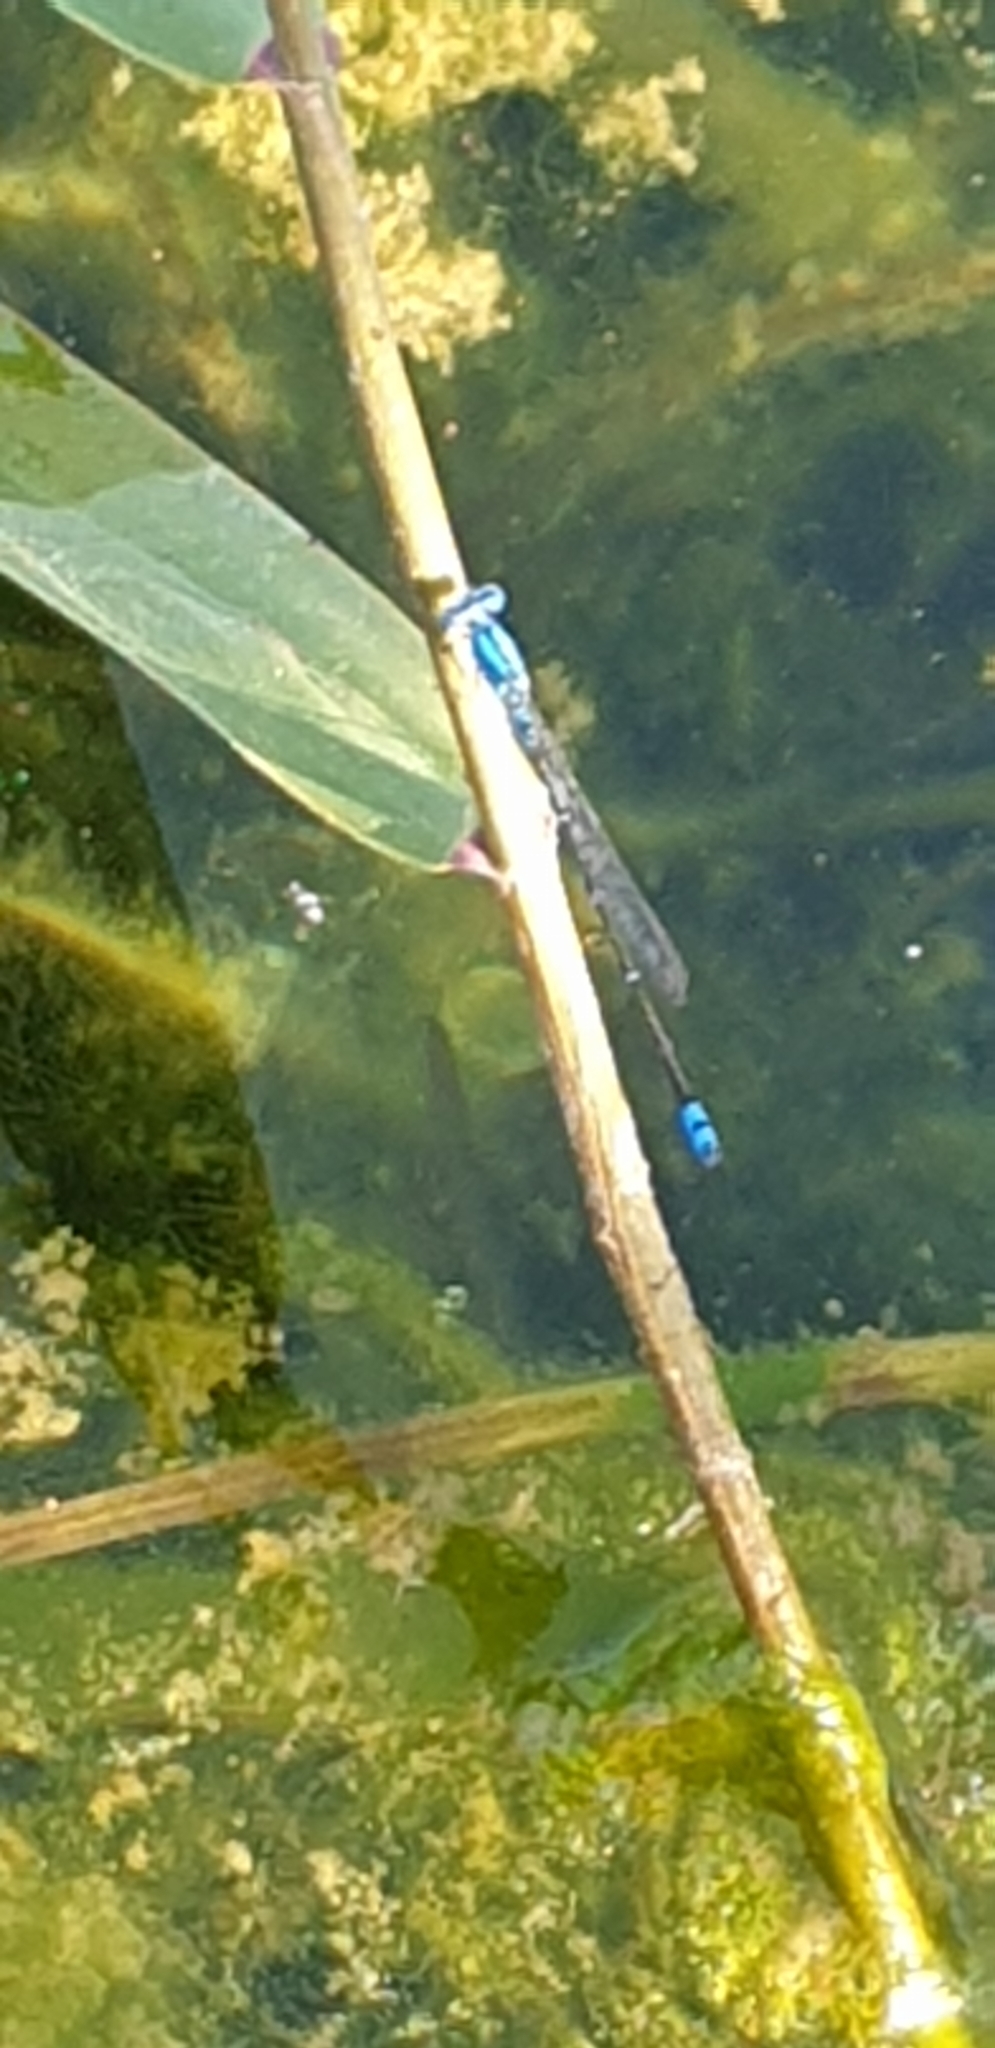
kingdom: Animalia
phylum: Arthropoda
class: Insecta
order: Odonata
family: Coenagrionidae
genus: Pseudagrion
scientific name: Pseudagrion microcephalum
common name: Blue riverdamsel
